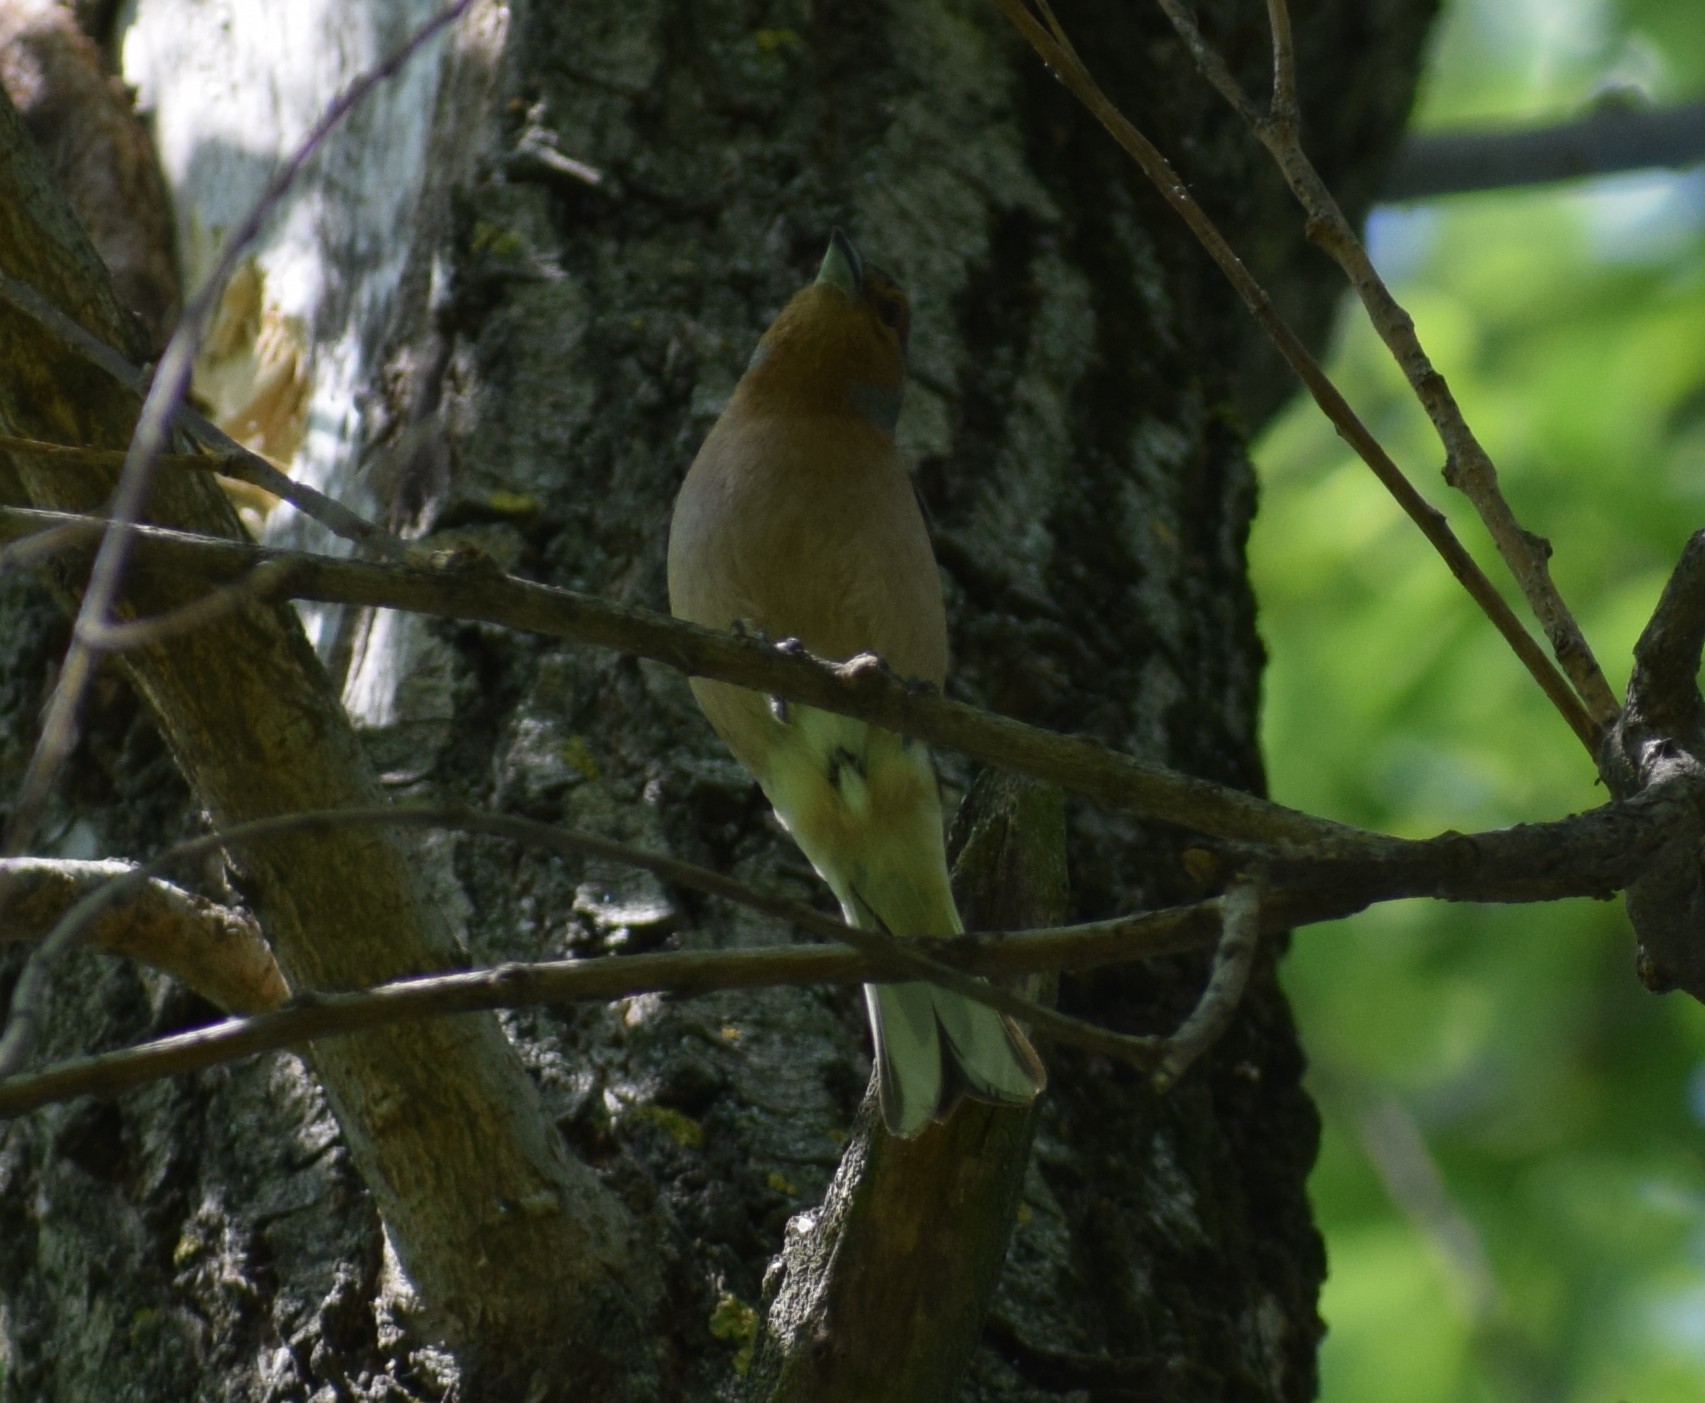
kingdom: Animalia
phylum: Chordata
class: Aves
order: Passeriformes
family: Fringillidae
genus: Fringilla
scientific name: Fringilla coelebs
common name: Common chaffinch
